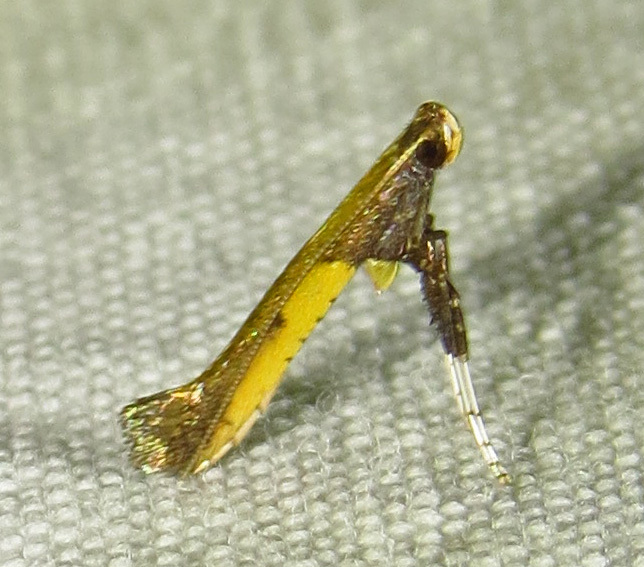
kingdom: Animalia
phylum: Arthropoda
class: Insecta
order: Lepidoptera
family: Gracillariidae
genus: Caloptilia
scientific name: Caloptilia azaleella
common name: Azalea leafminer
